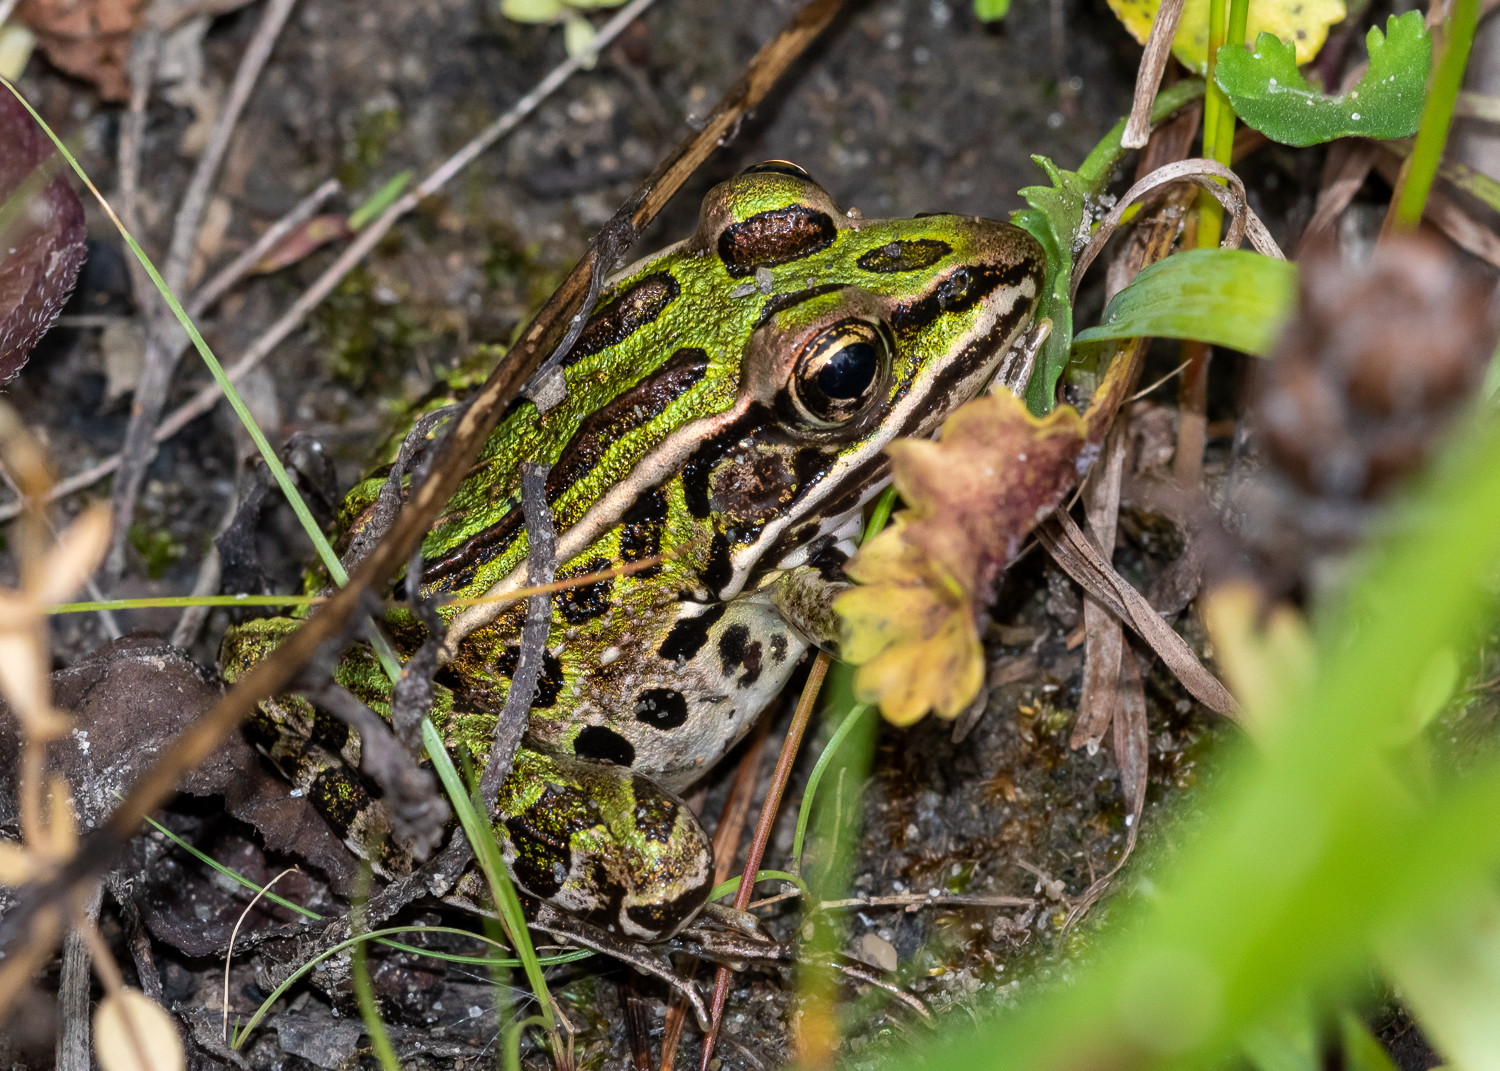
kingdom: Animalia
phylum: Chordata
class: Amphibia
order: Anura
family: Ranidae
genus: Lithobates
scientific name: Lithobates pipiens
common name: Northern leopard frog
